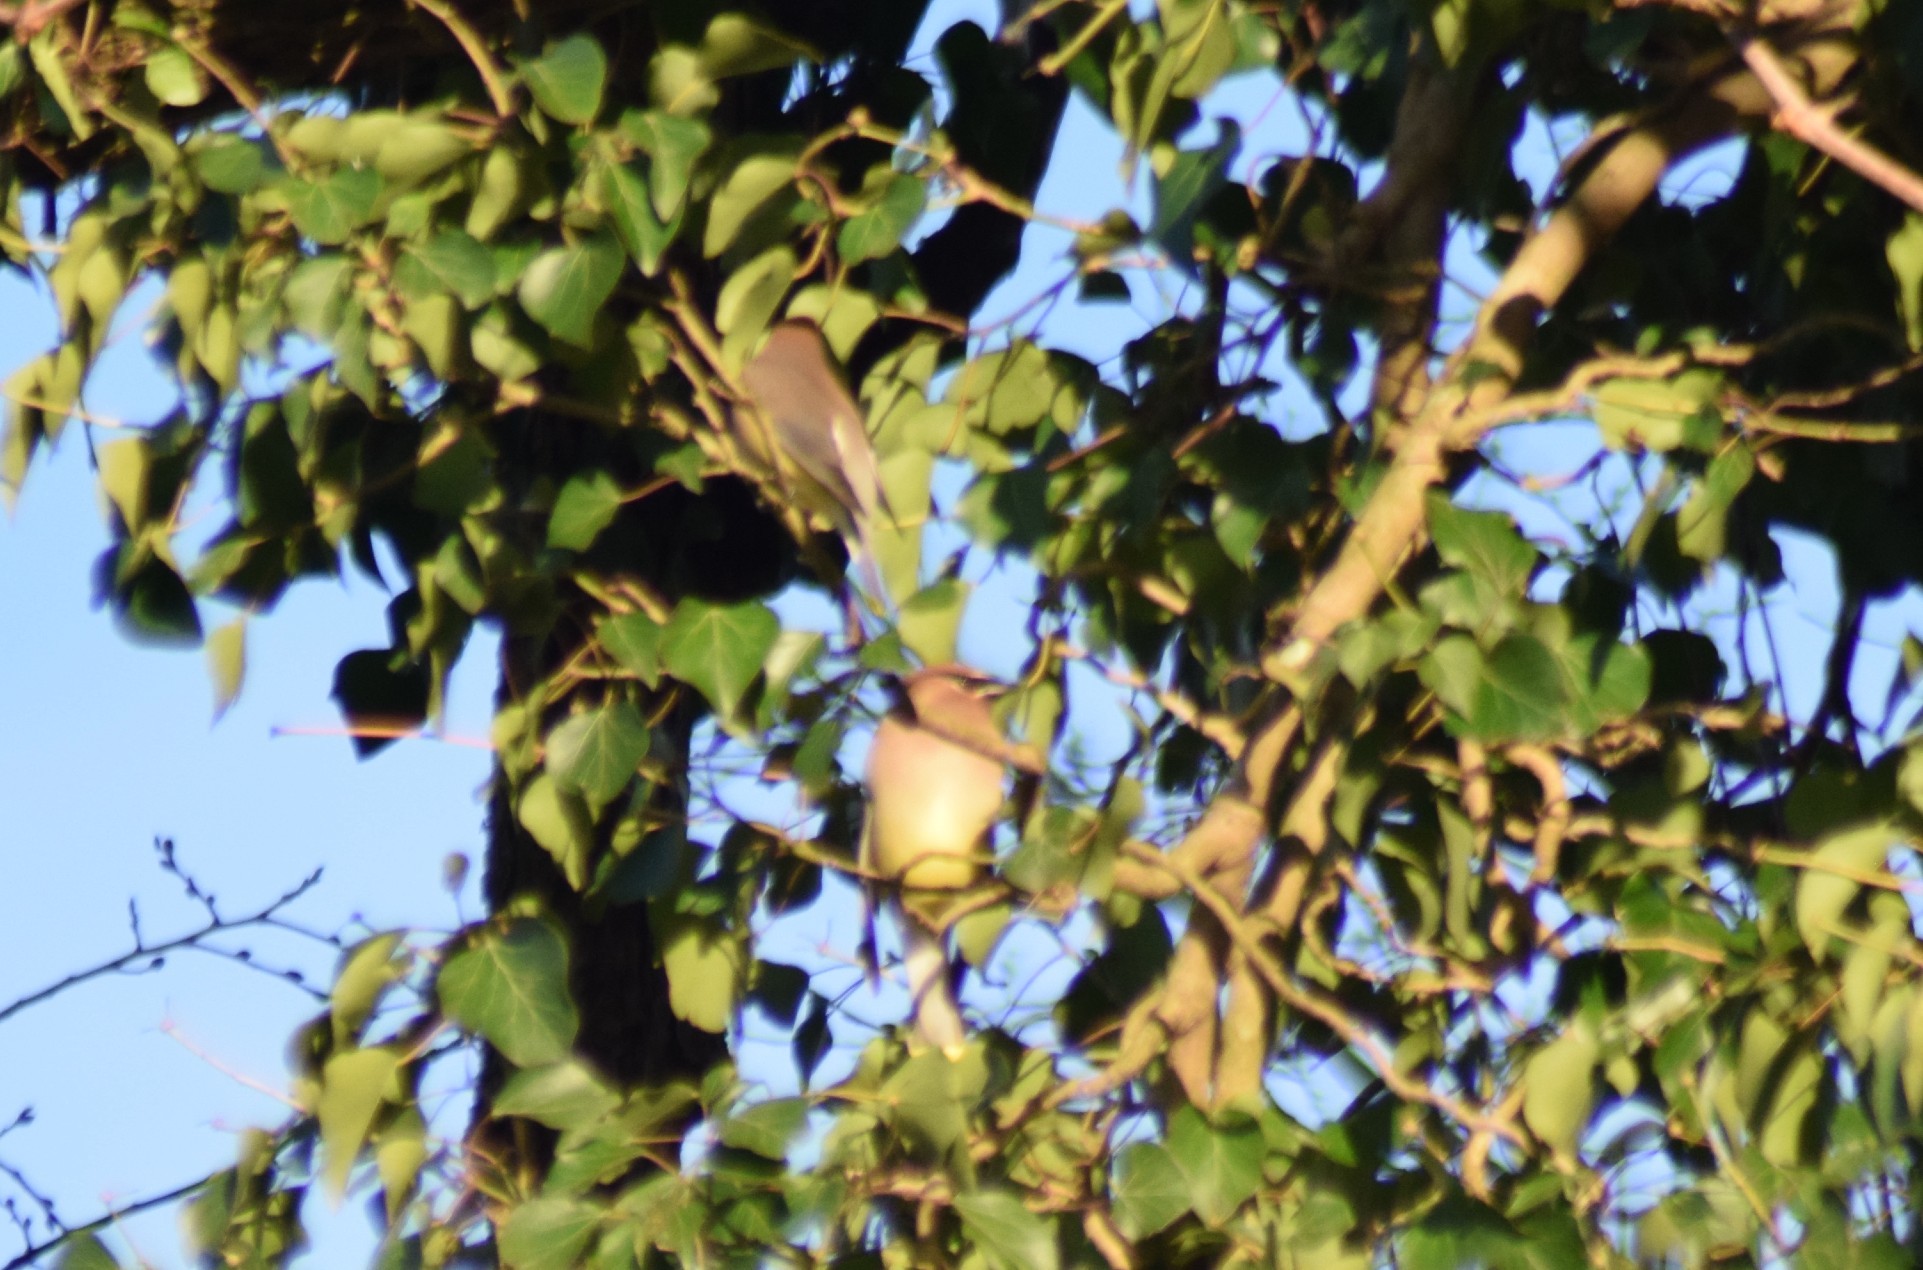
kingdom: Animalia
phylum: Chordata
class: Aves
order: Passeriformes
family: Bombycillidae
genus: Bombycilla
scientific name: Bombycilla cedrorum
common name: Cedar waxwing
